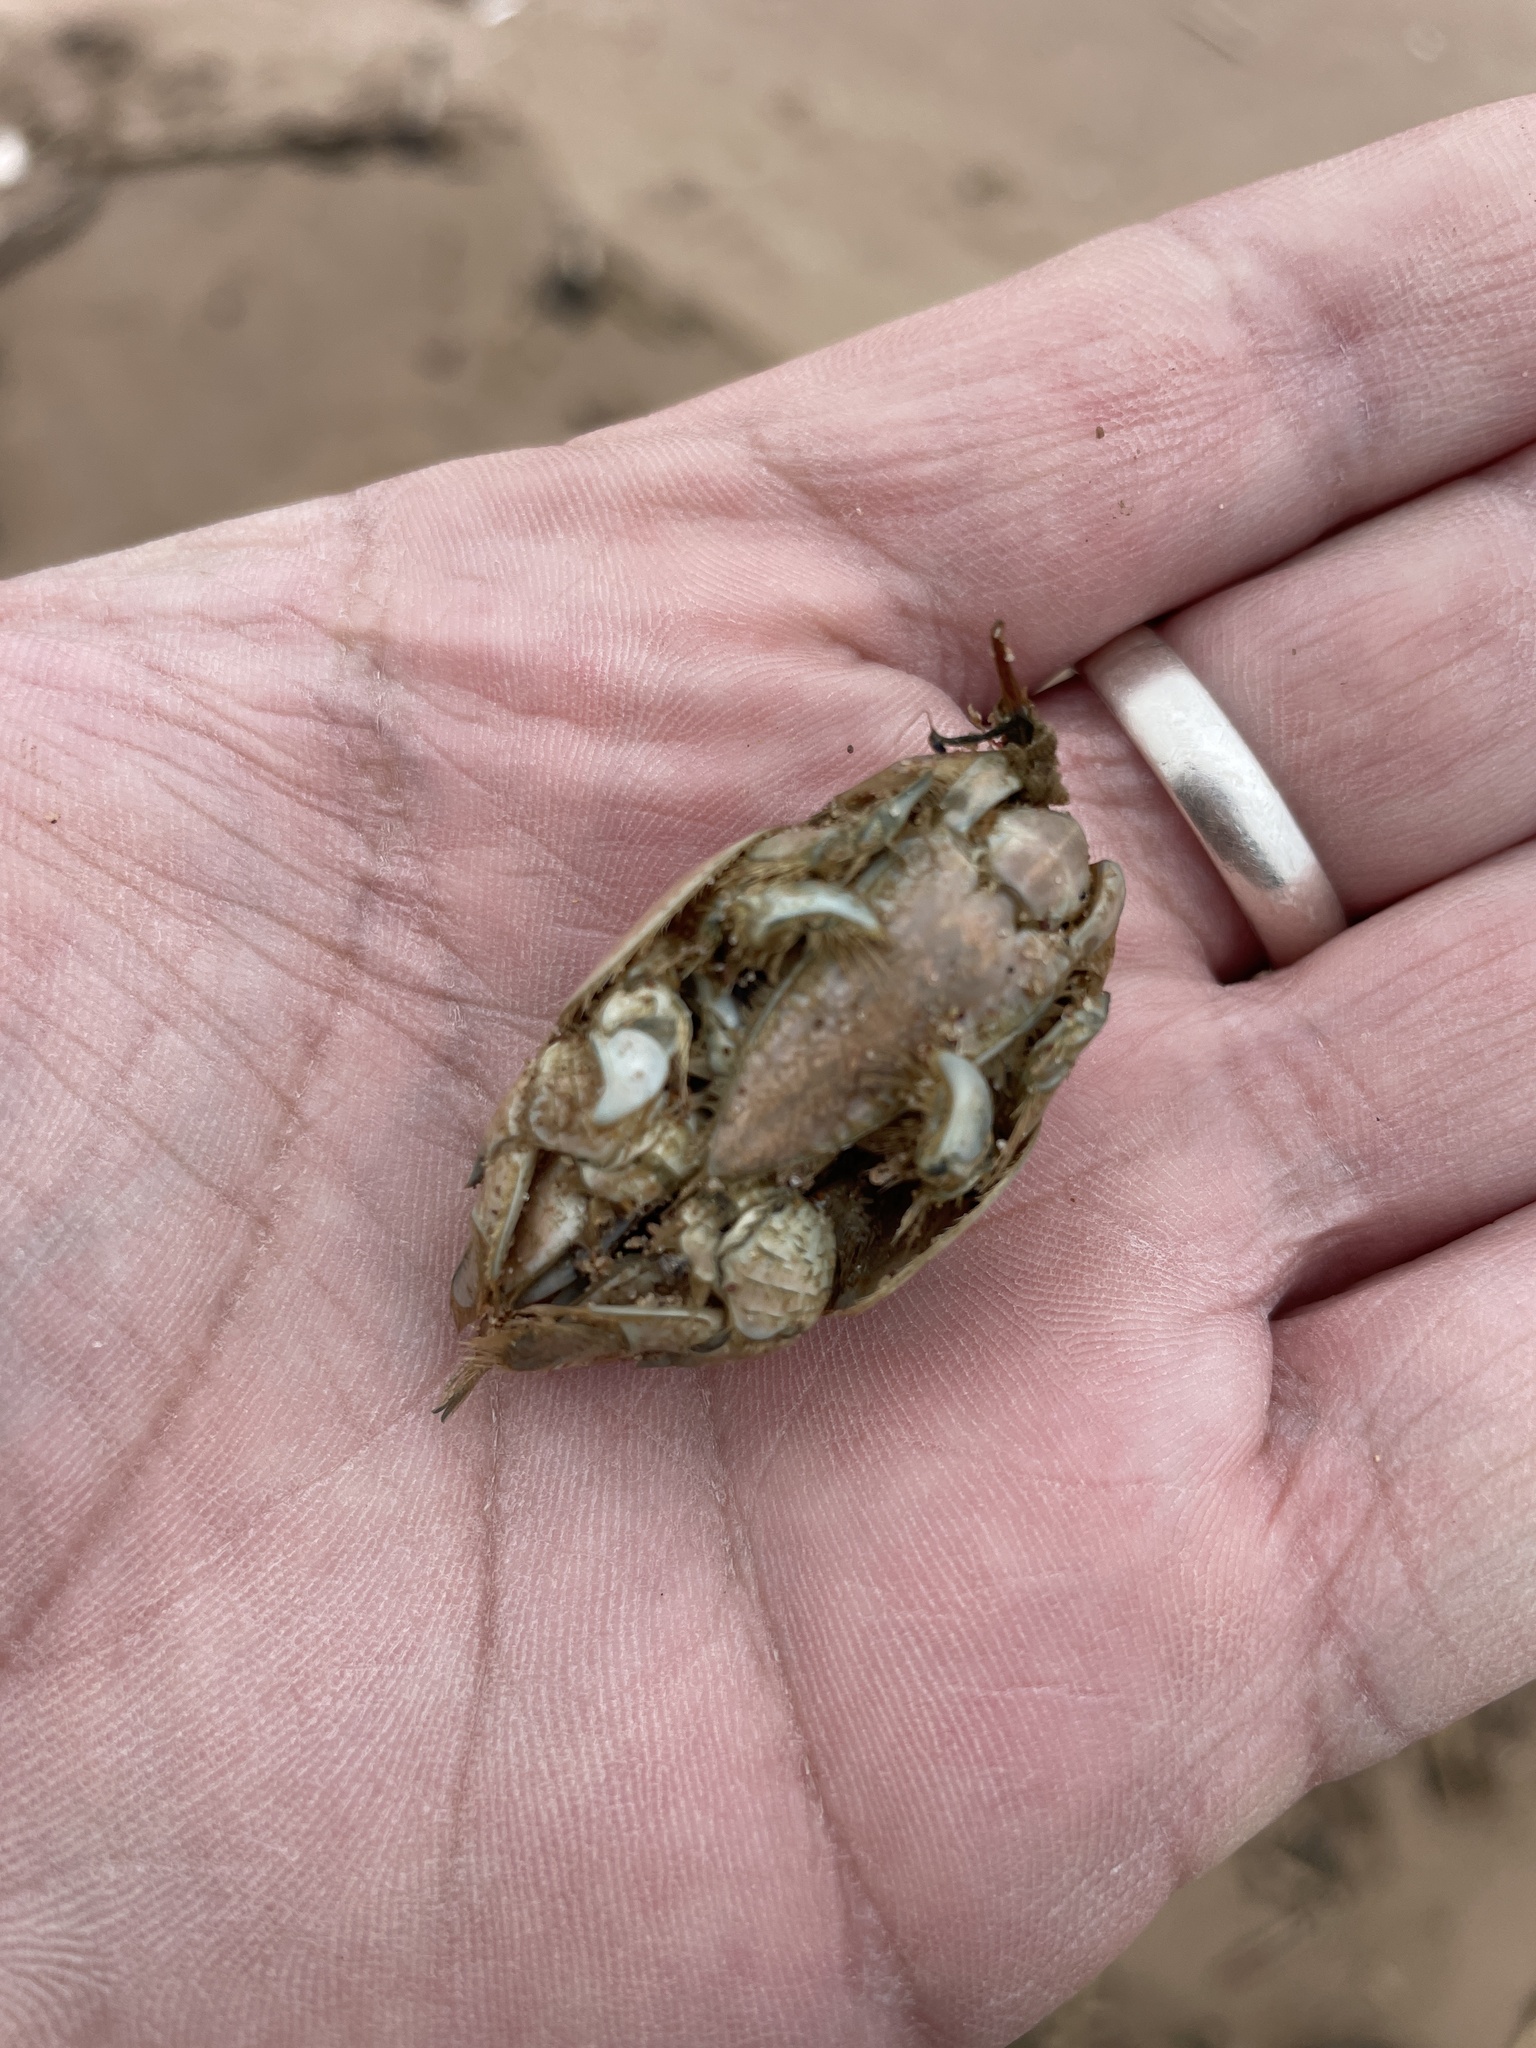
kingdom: Animalia
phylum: Arthropoda
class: Malacostraca
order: Decapoda
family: Hippidae
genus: Emerita
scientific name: Emerita talpoida
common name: Atlantic sand crab
